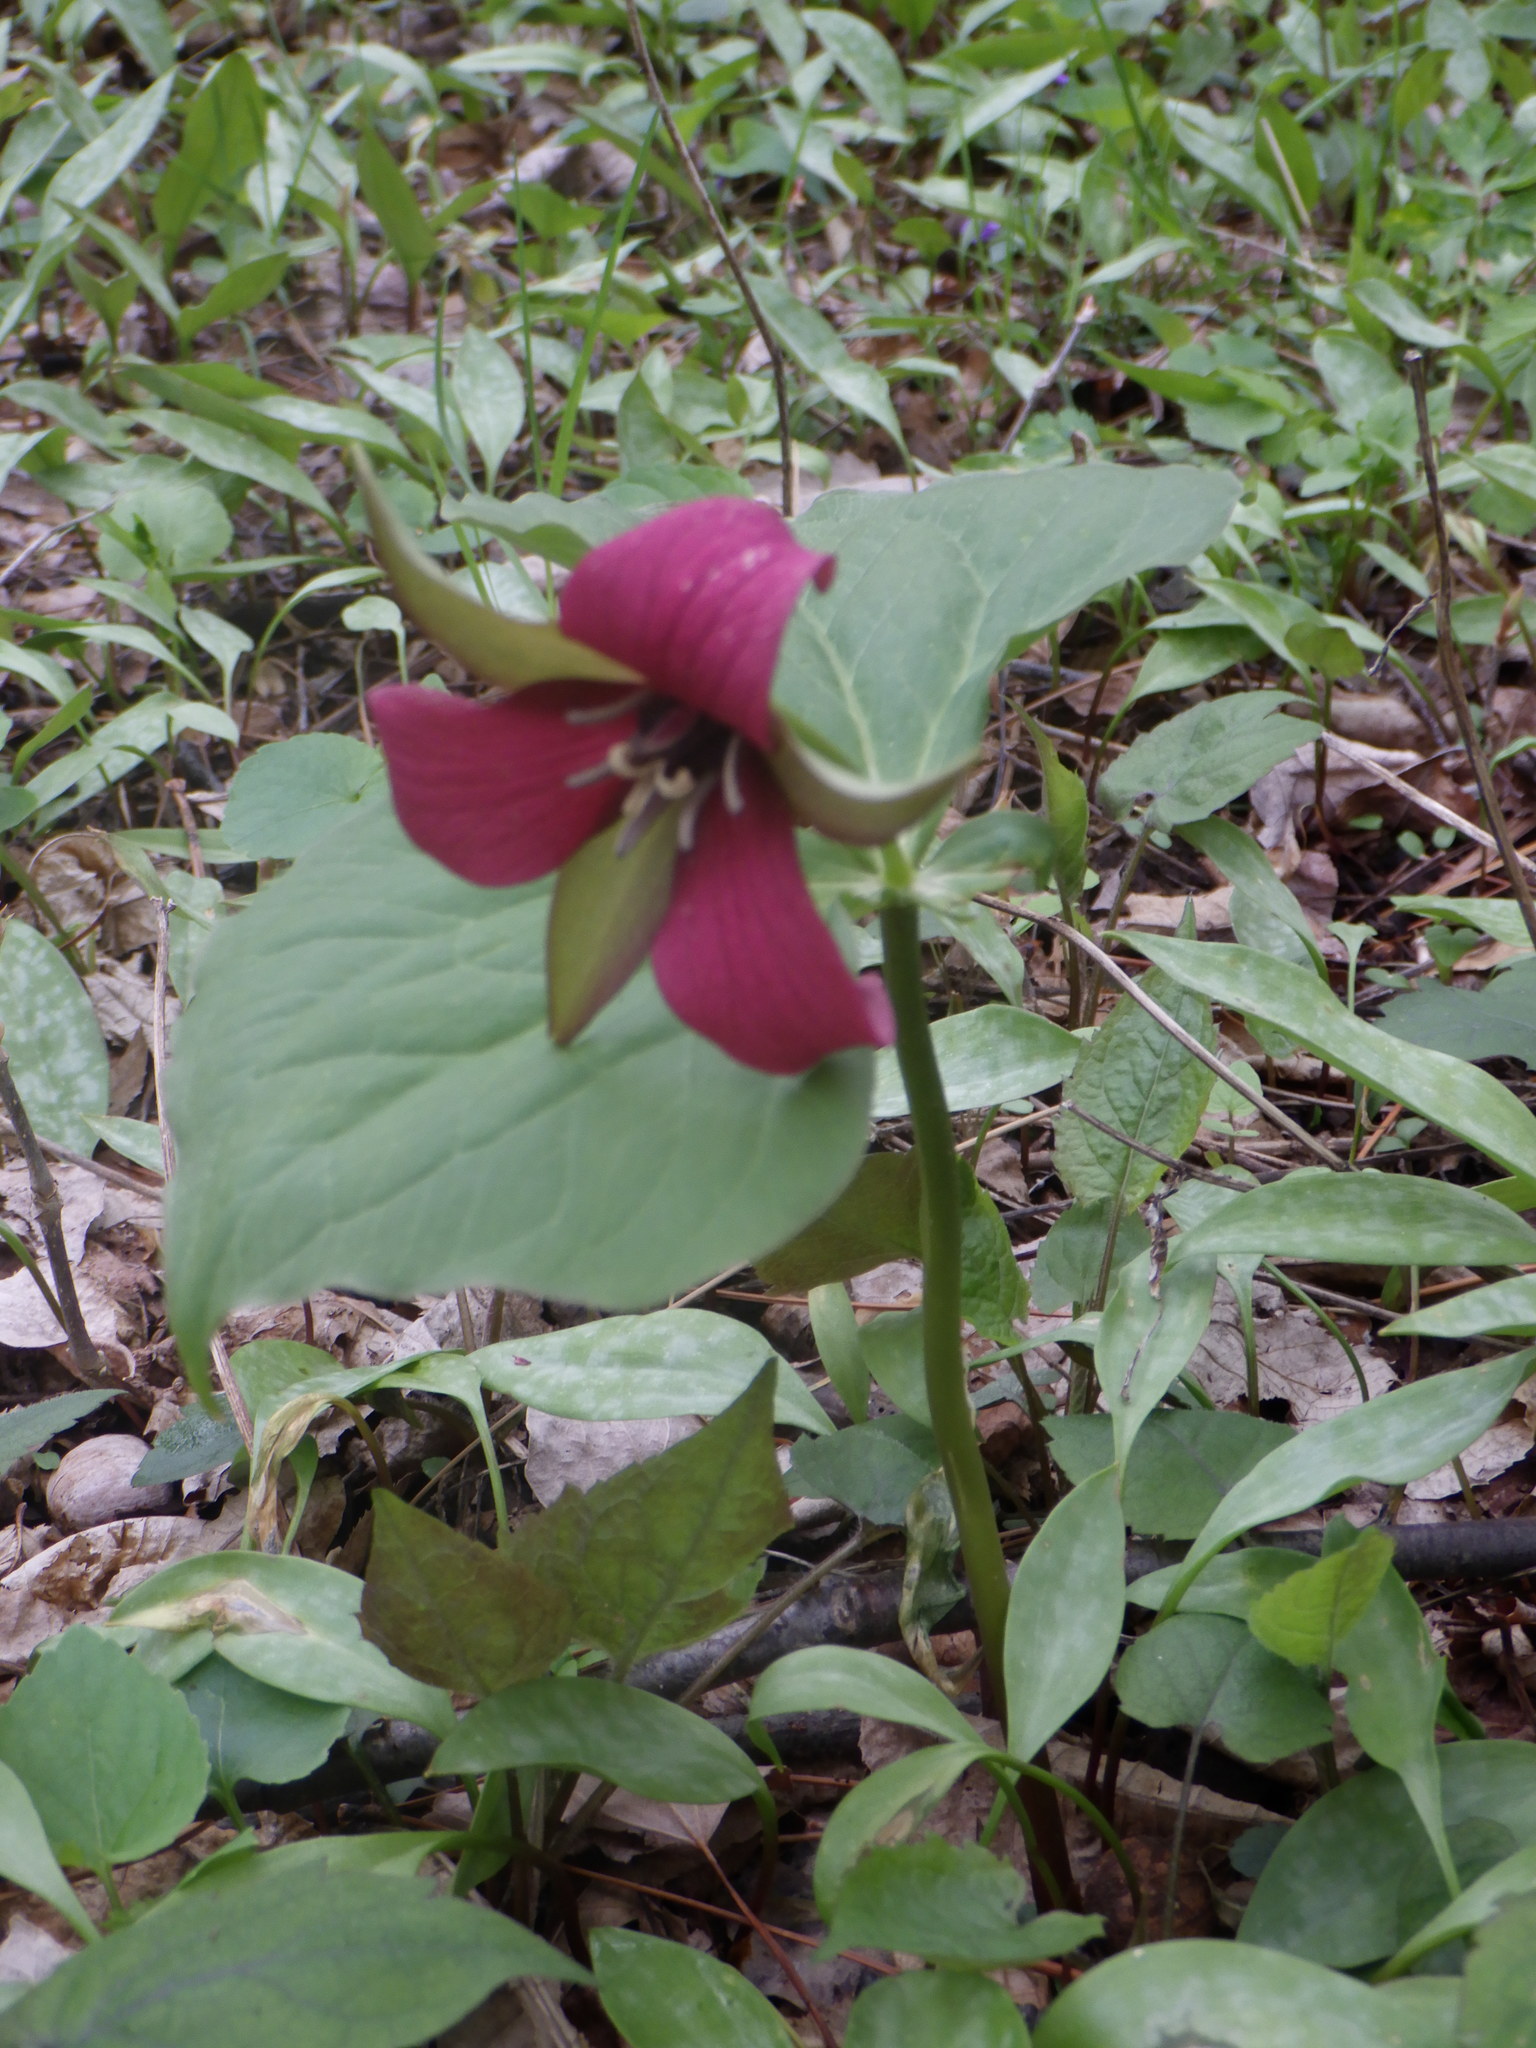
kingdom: Plantae
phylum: Tracheophyta
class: Liliopsida
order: Liliales
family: Melanthiaceae
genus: Trillium
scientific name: Trillium erectum
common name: Purple trillium
